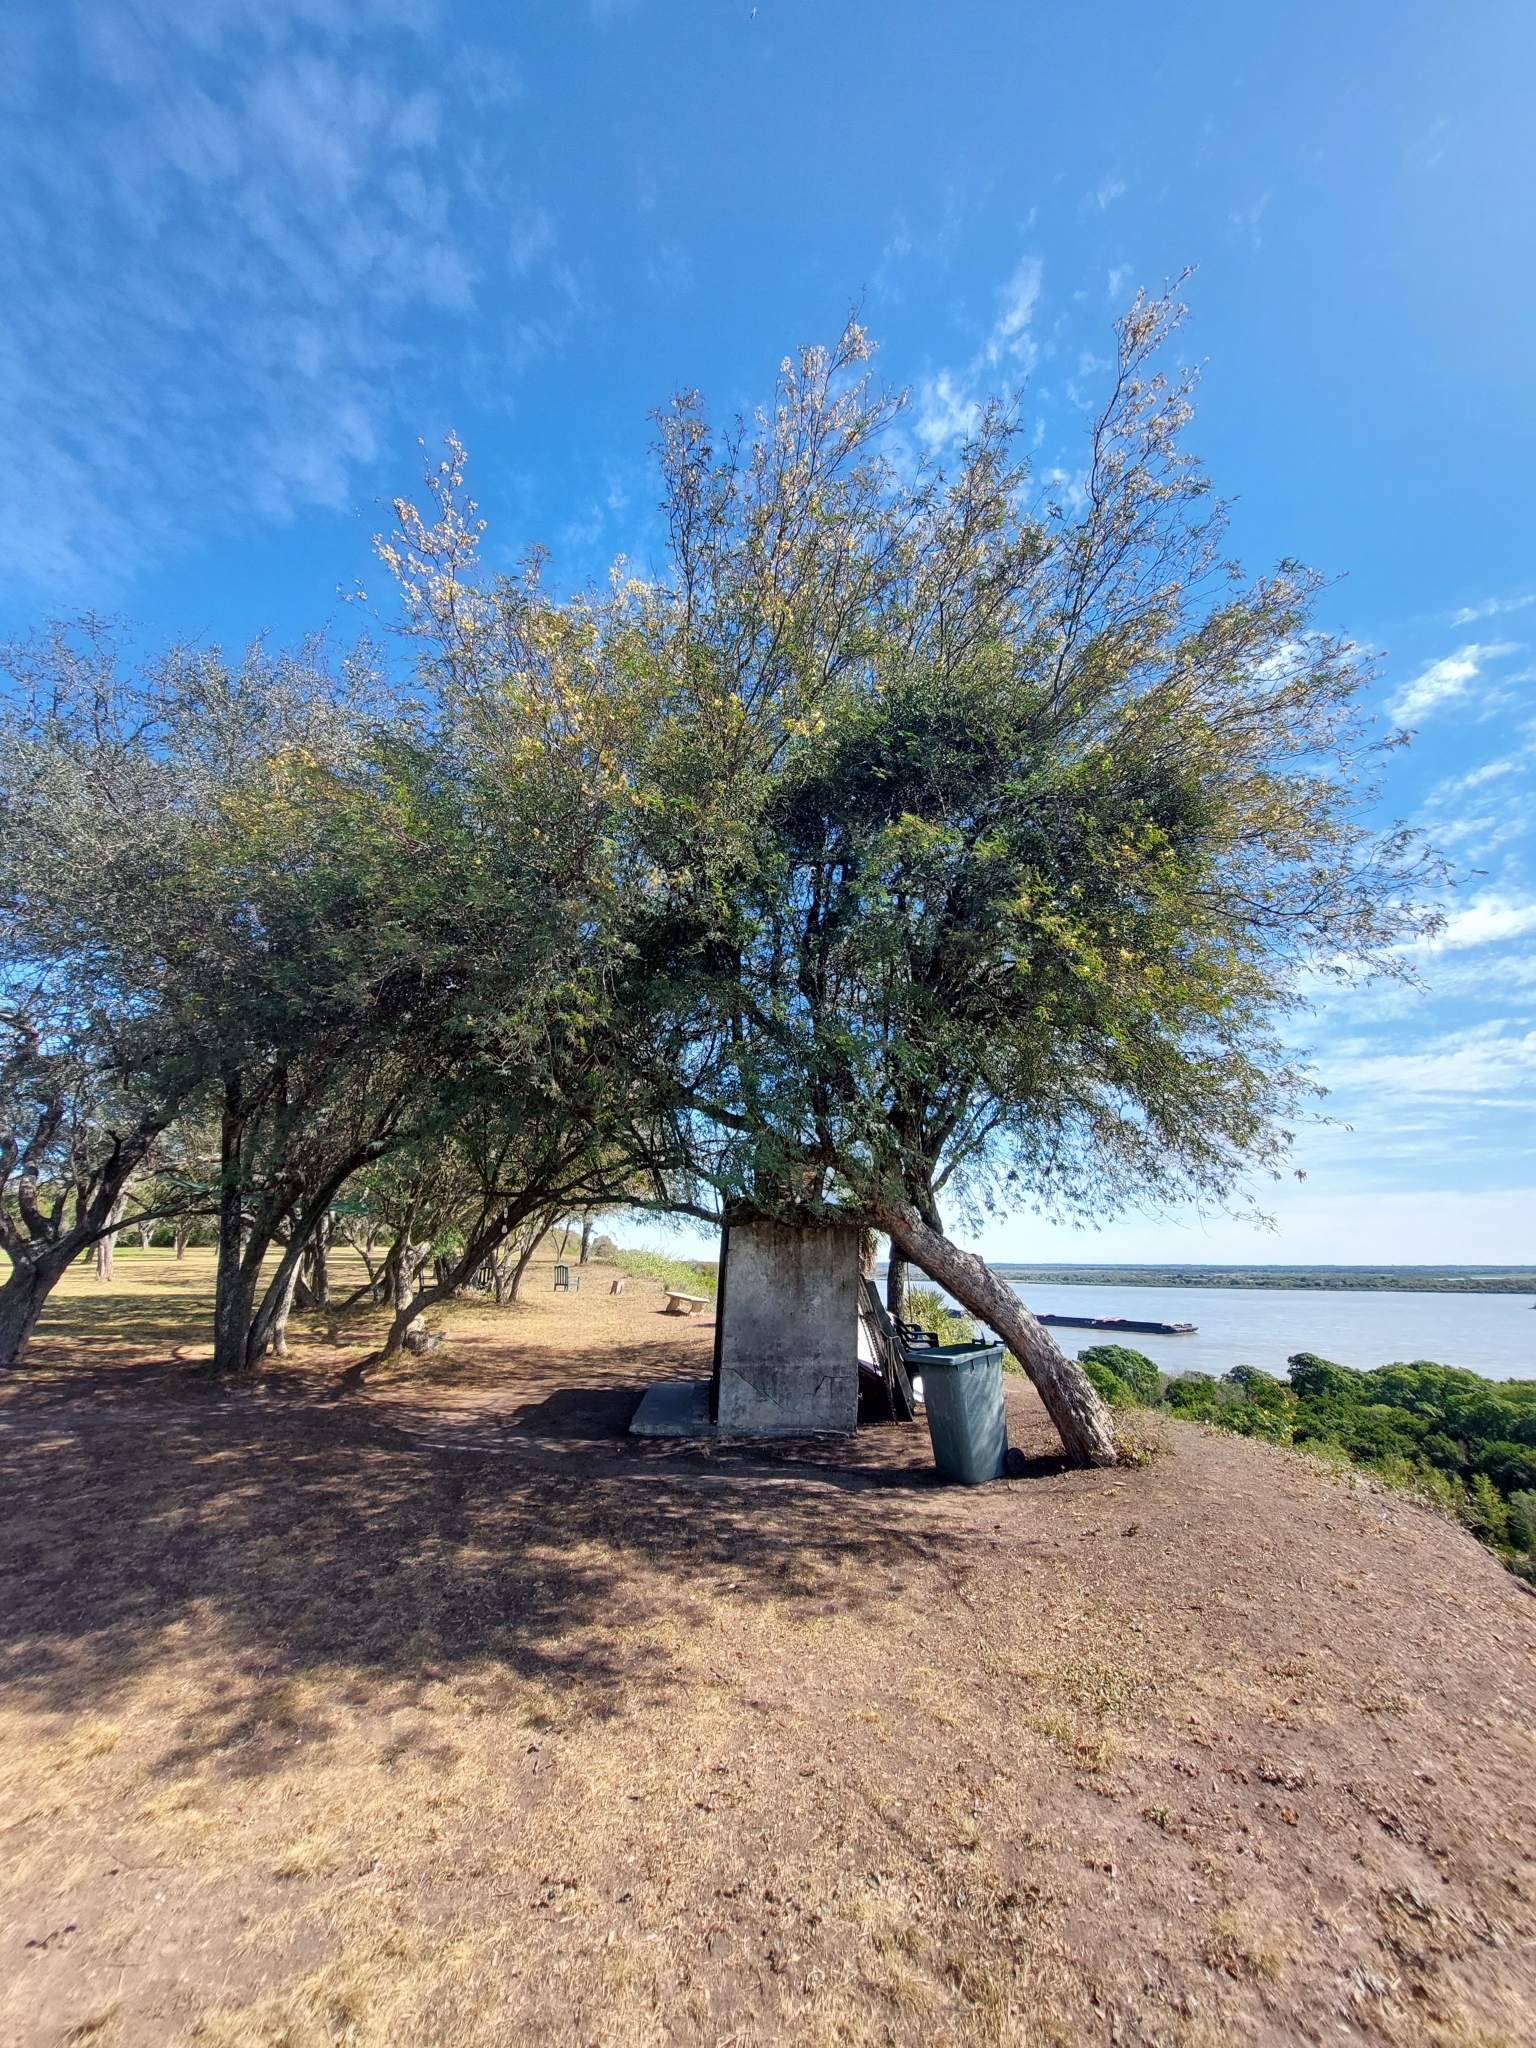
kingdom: Plantae
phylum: Tracheophyta
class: Magnoliopsida
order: Fabales
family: Fabaceae
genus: Senegalia
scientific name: Senegalia praecox
